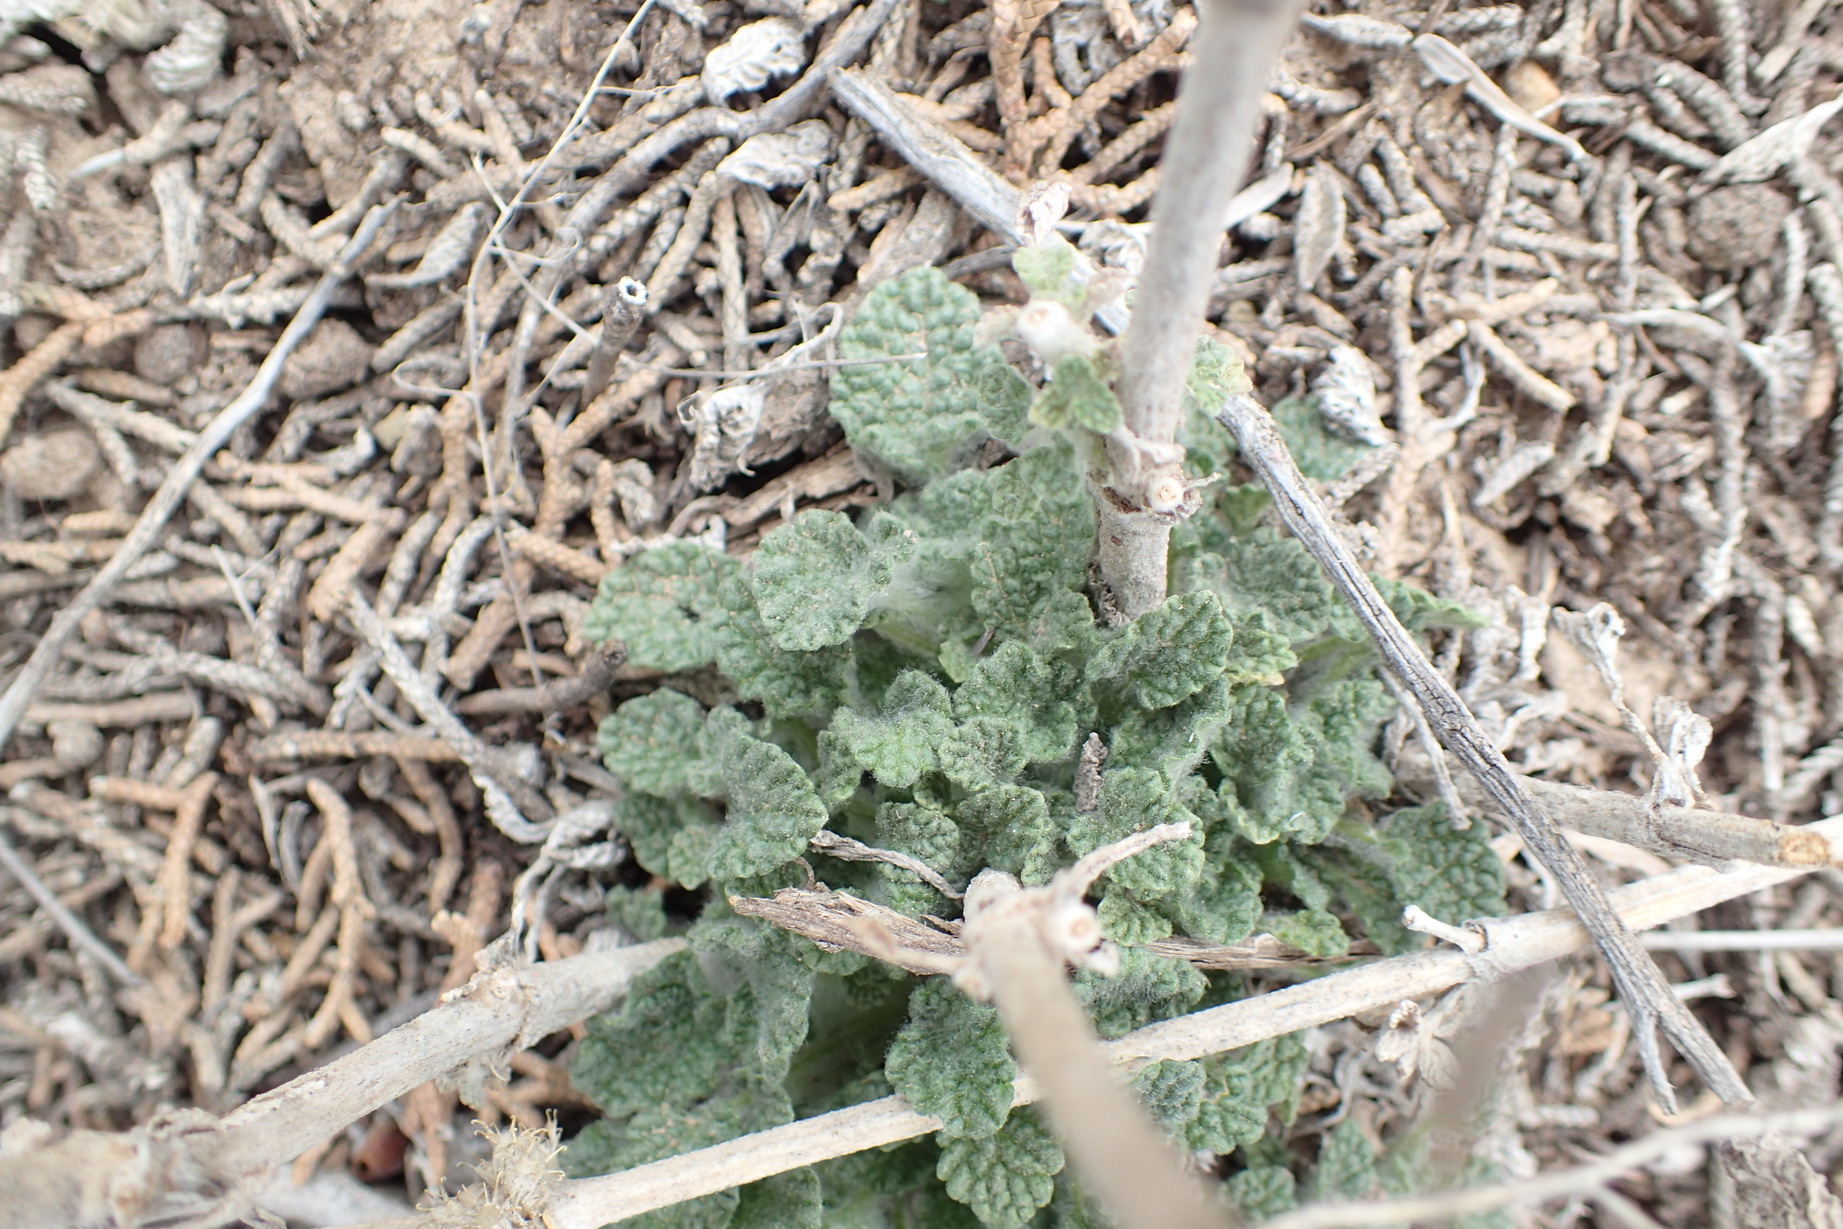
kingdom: Plantae
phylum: Tracheophyta
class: Magnoliopsida
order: Lamiales
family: Lamiaceae
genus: Marrubium
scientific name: Marrubium vulgare
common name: Horehound
